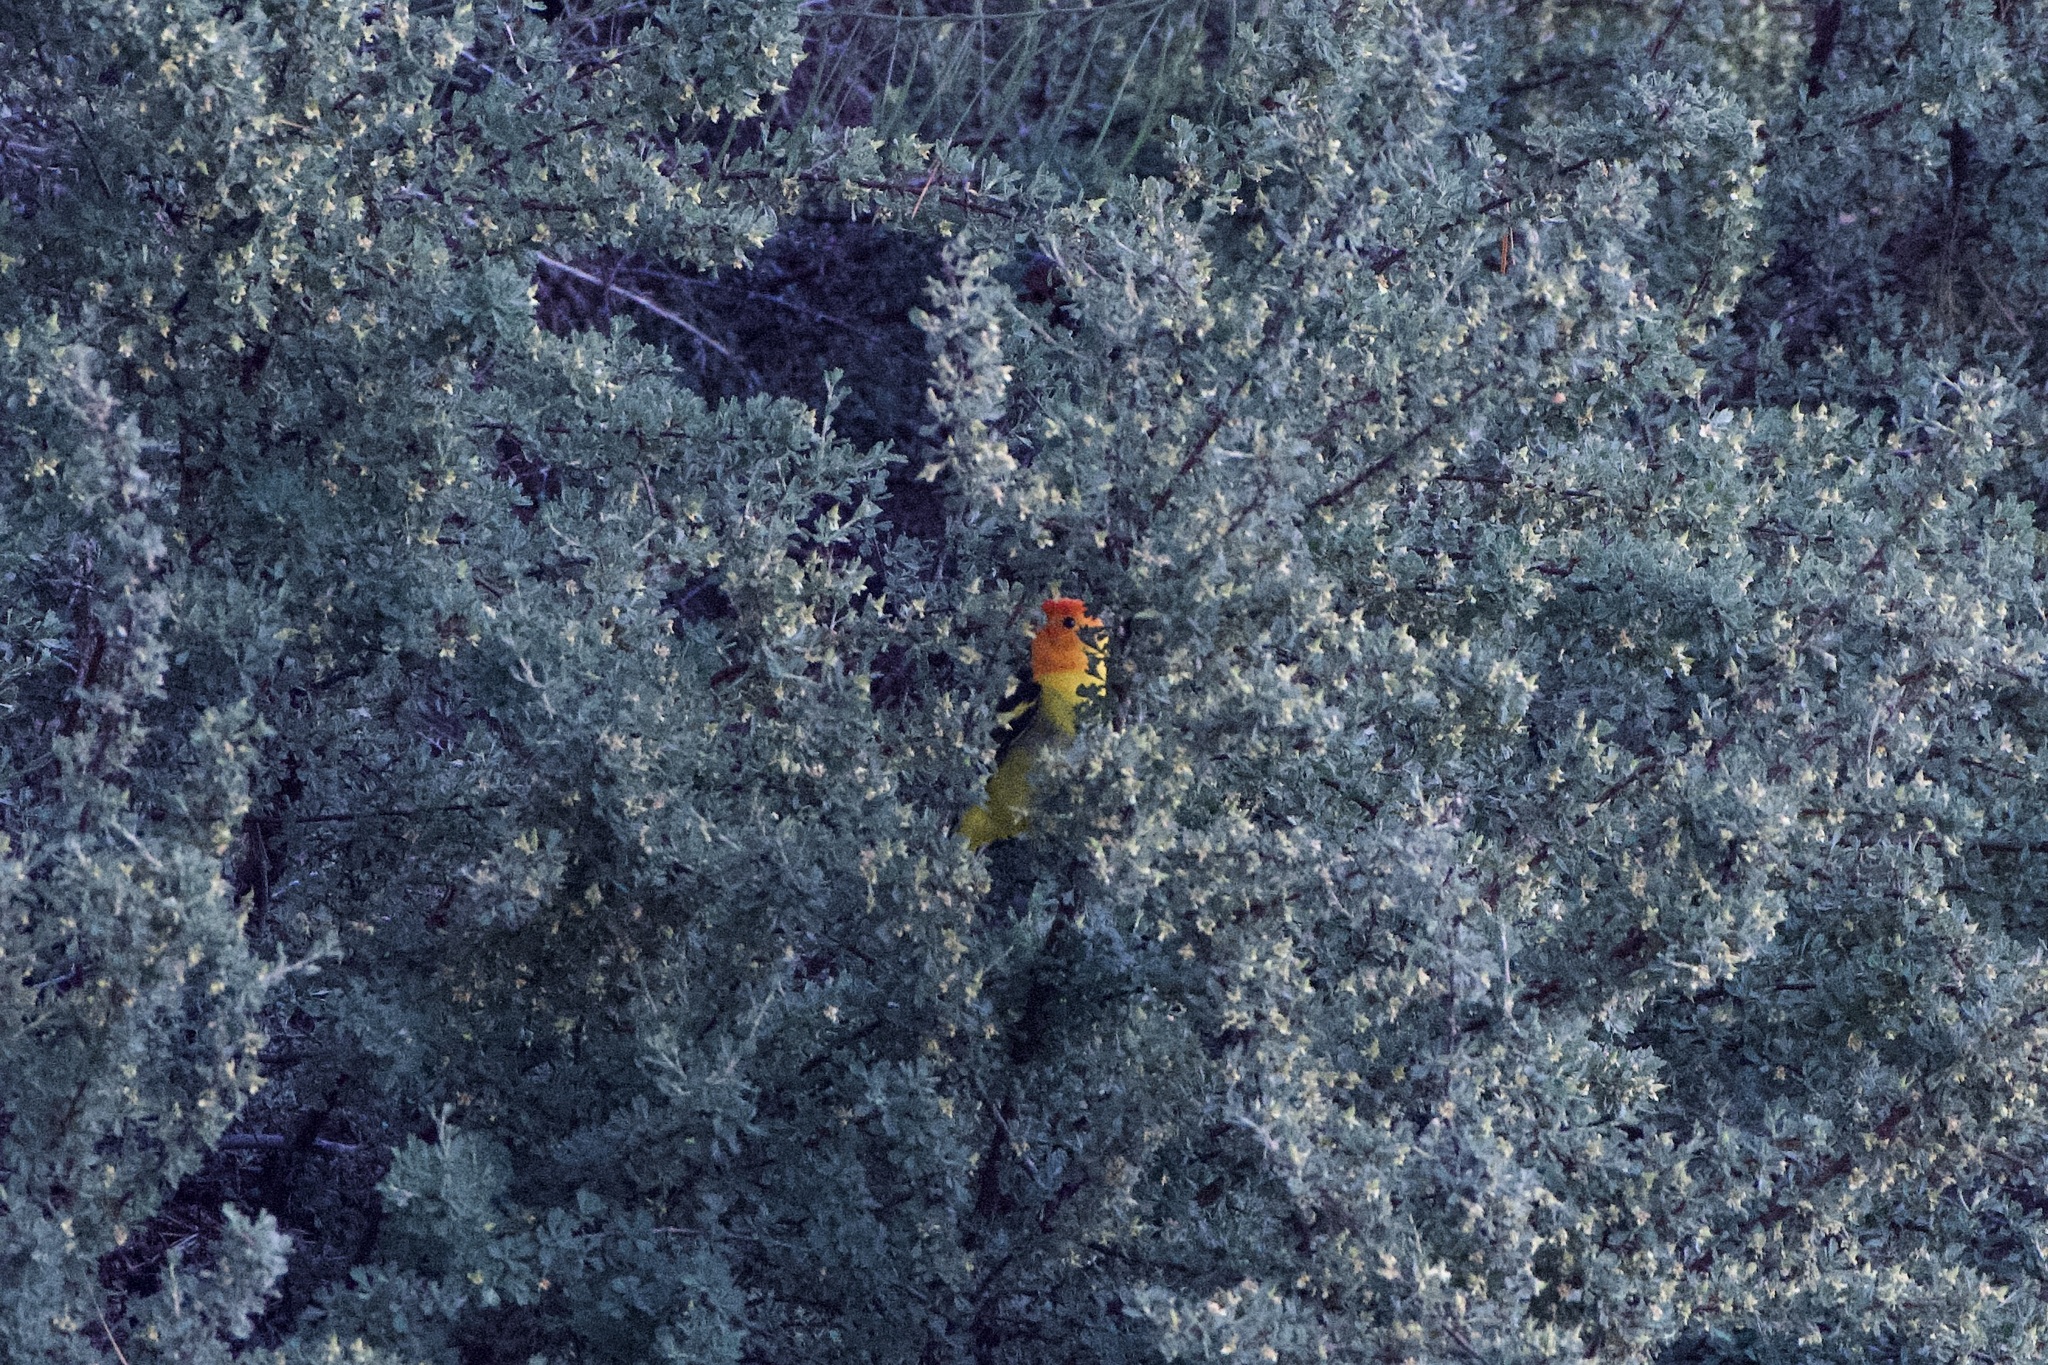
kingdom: Animalia
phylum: Chordata
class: Aves
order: Passeriformes
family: Cardinalidae
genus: Piranga
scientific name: Piranga ludoviciana
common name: Western tanager
